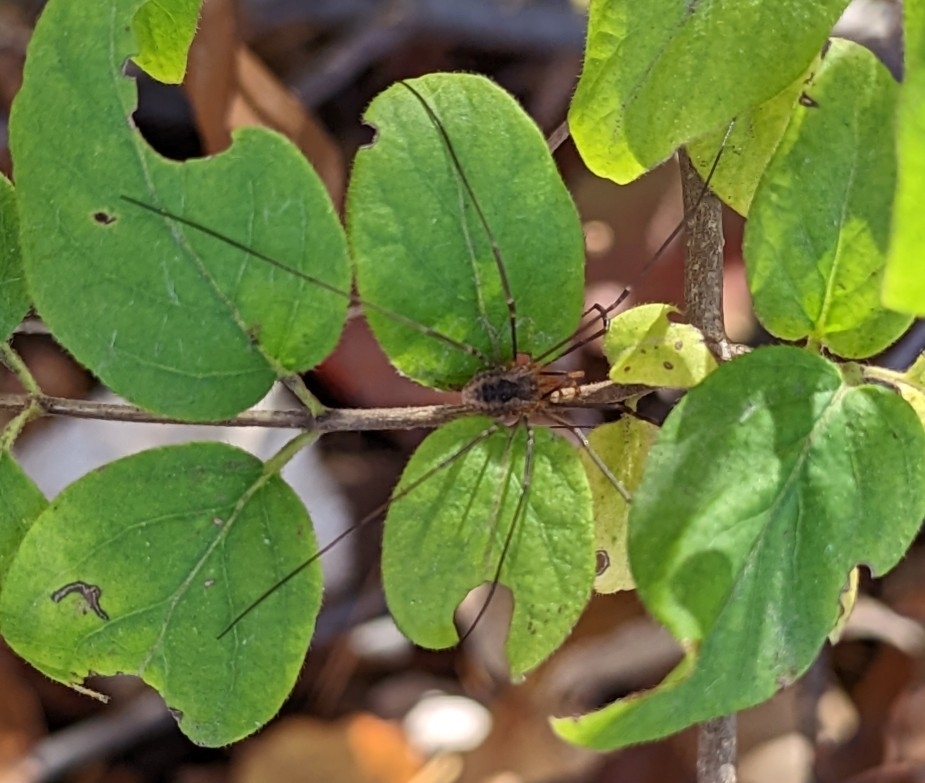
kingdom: Animalia
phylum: Arthropoda
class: Arachnida
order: Opiliones
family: Phalangiidae
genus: Phalangium
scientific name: Phalangium opilio
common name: Daddy longleg
